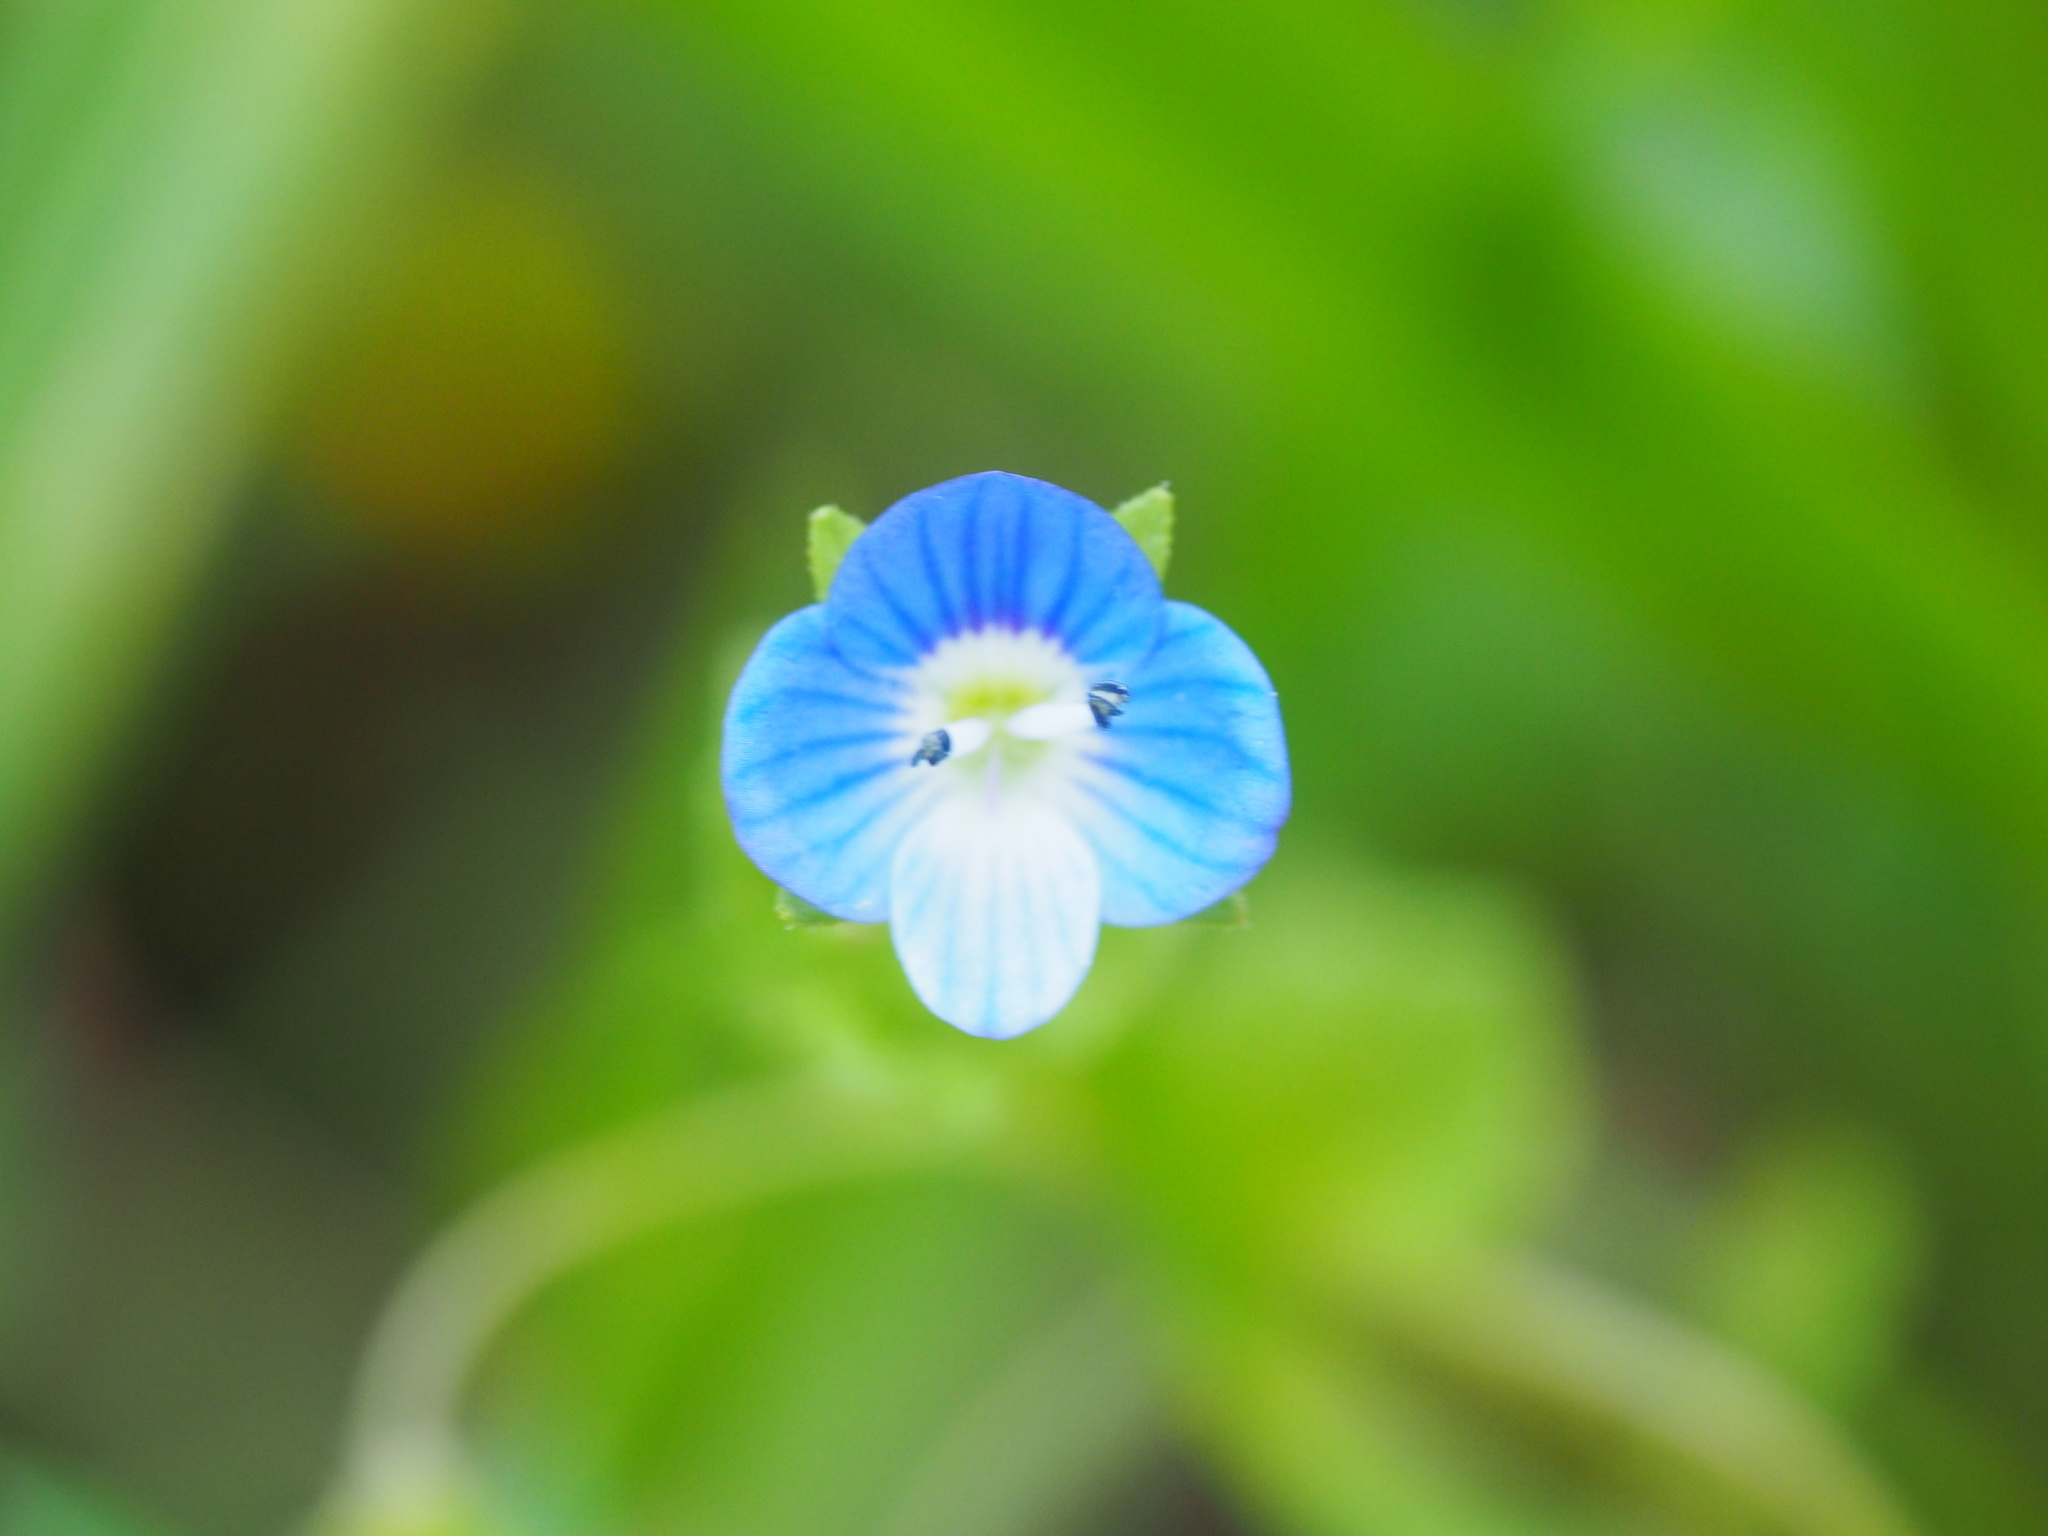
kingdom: Plantae
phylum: Tracheophyta
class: Magnoliopsida
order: Lamiales
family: Plantaginaceae
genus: Veronica
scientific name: Veronica persica
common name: Common field-speedwell
